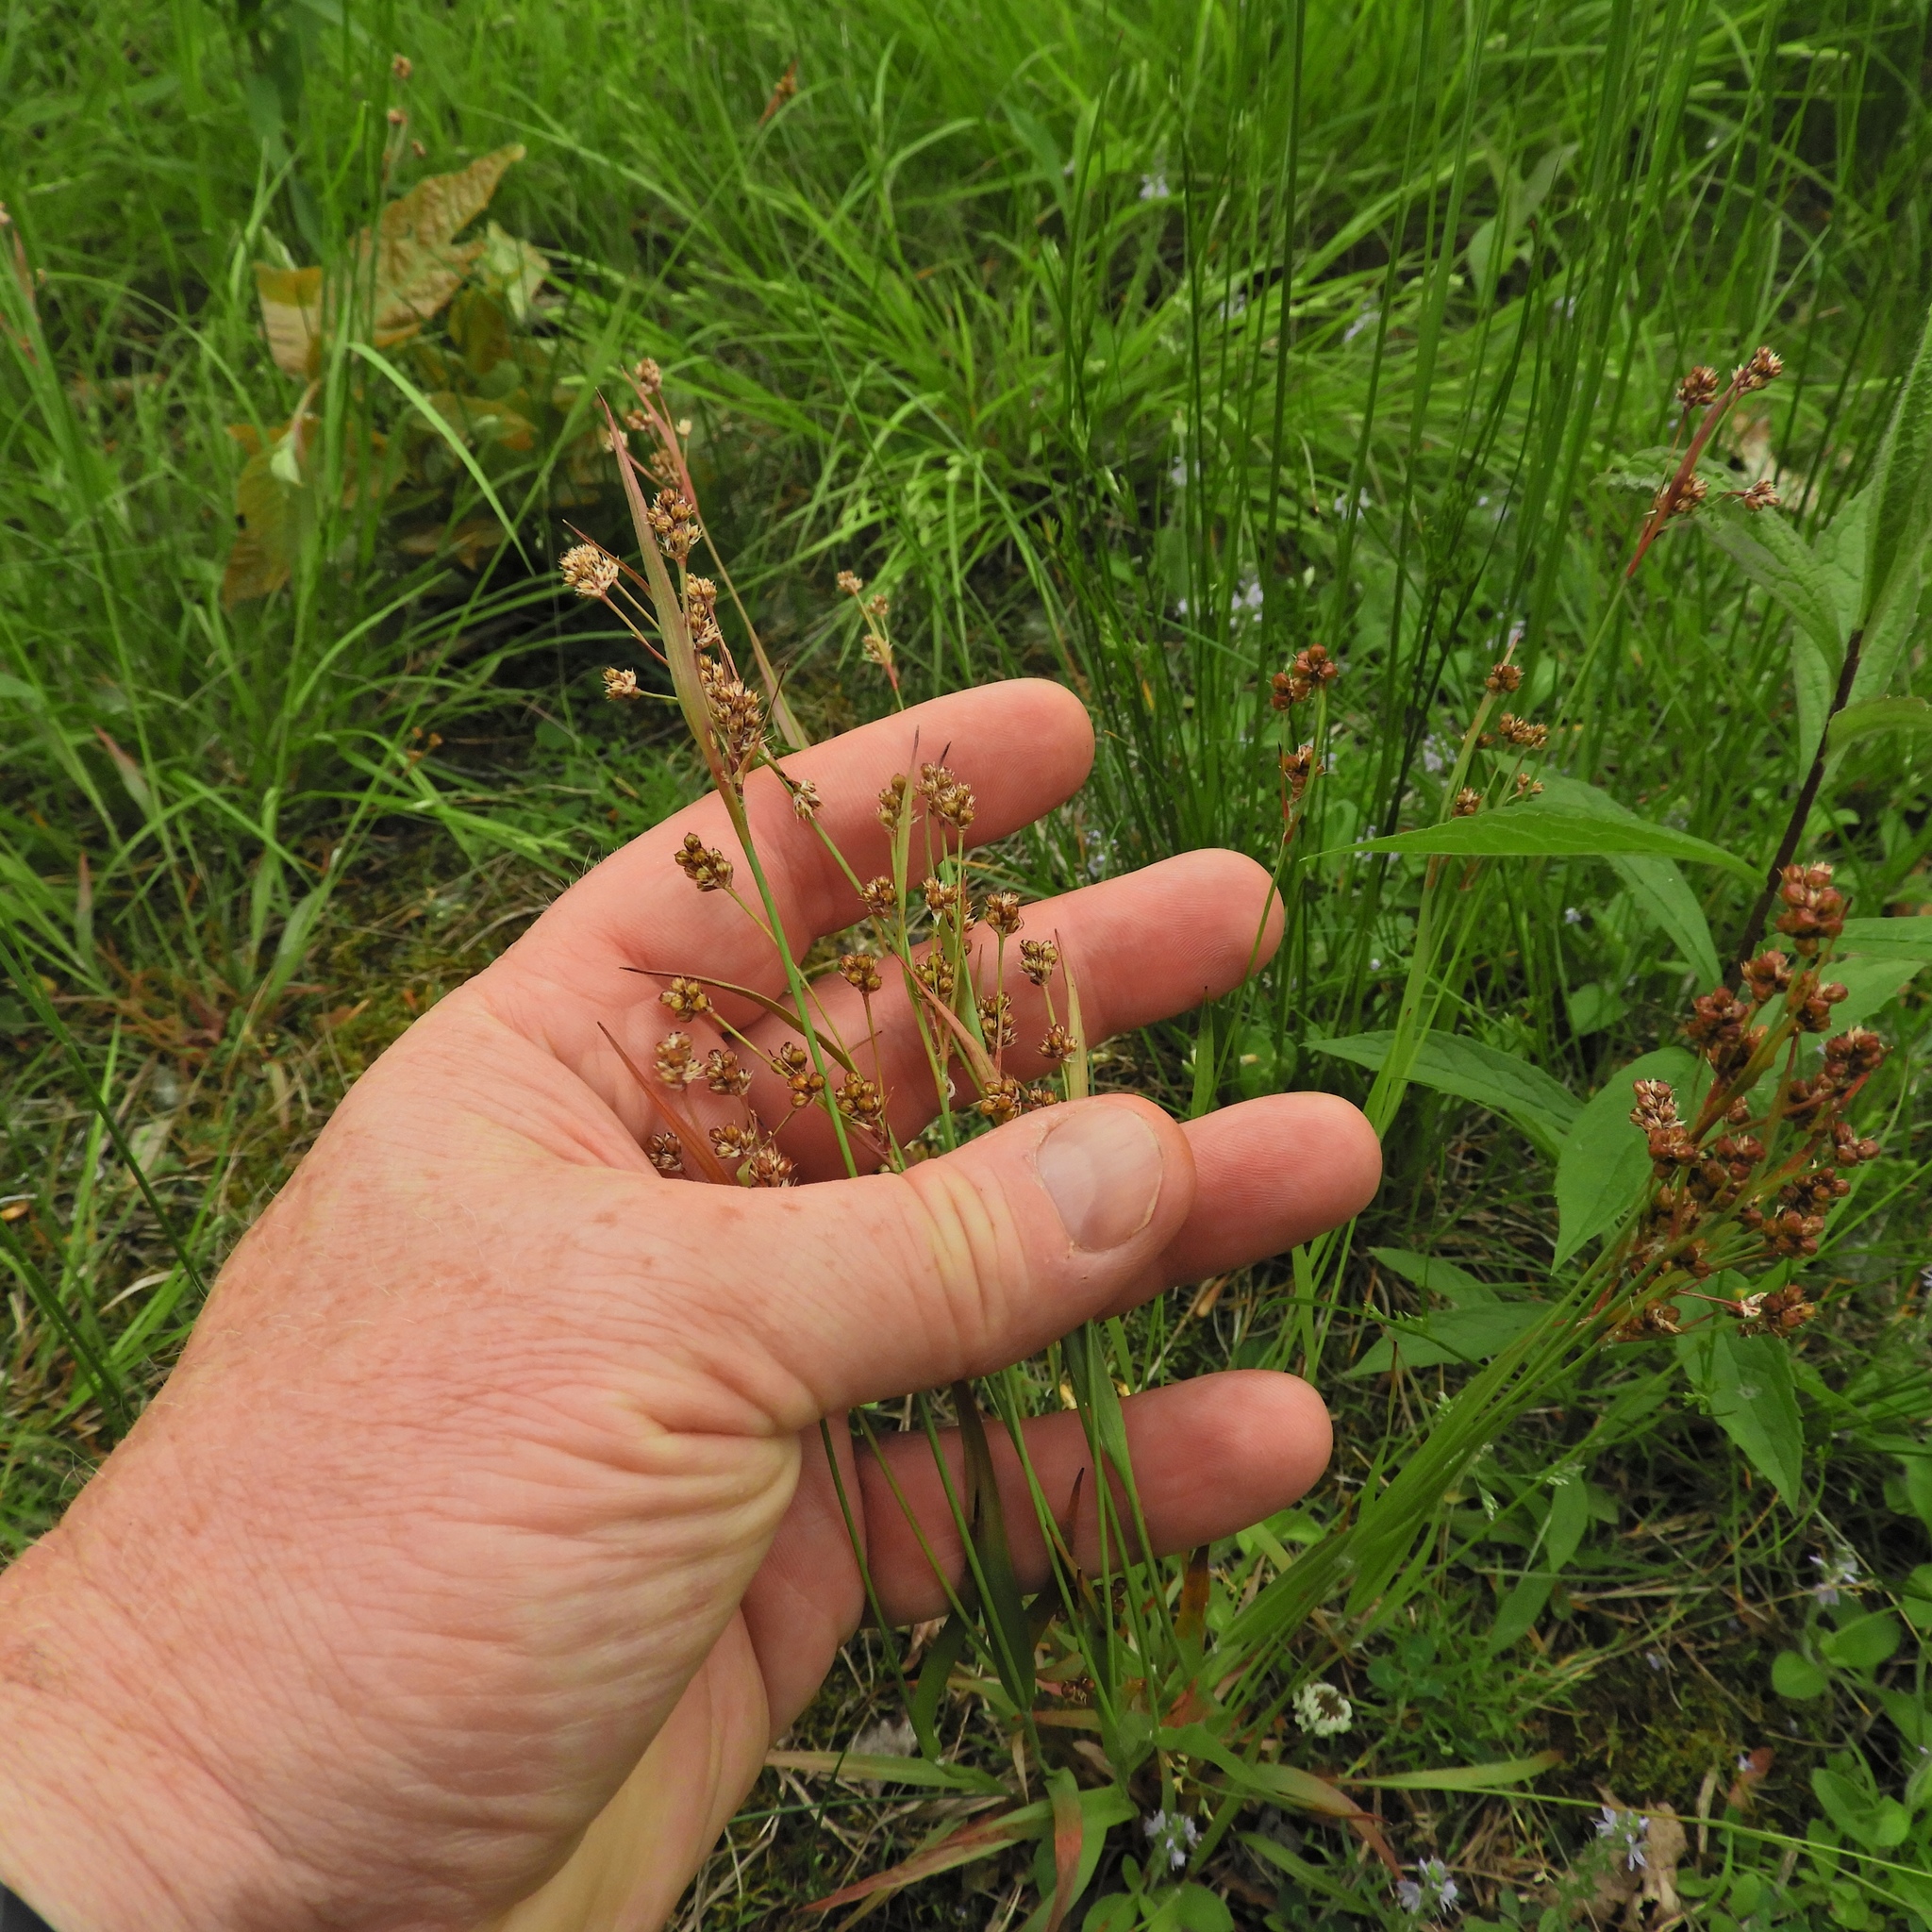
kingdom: Plantae
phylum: Tracheophyta
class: Magnoliopsida
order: Fabales
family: Fabaceae
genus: Trifolium
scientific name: Trifolium repens
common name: White clover
